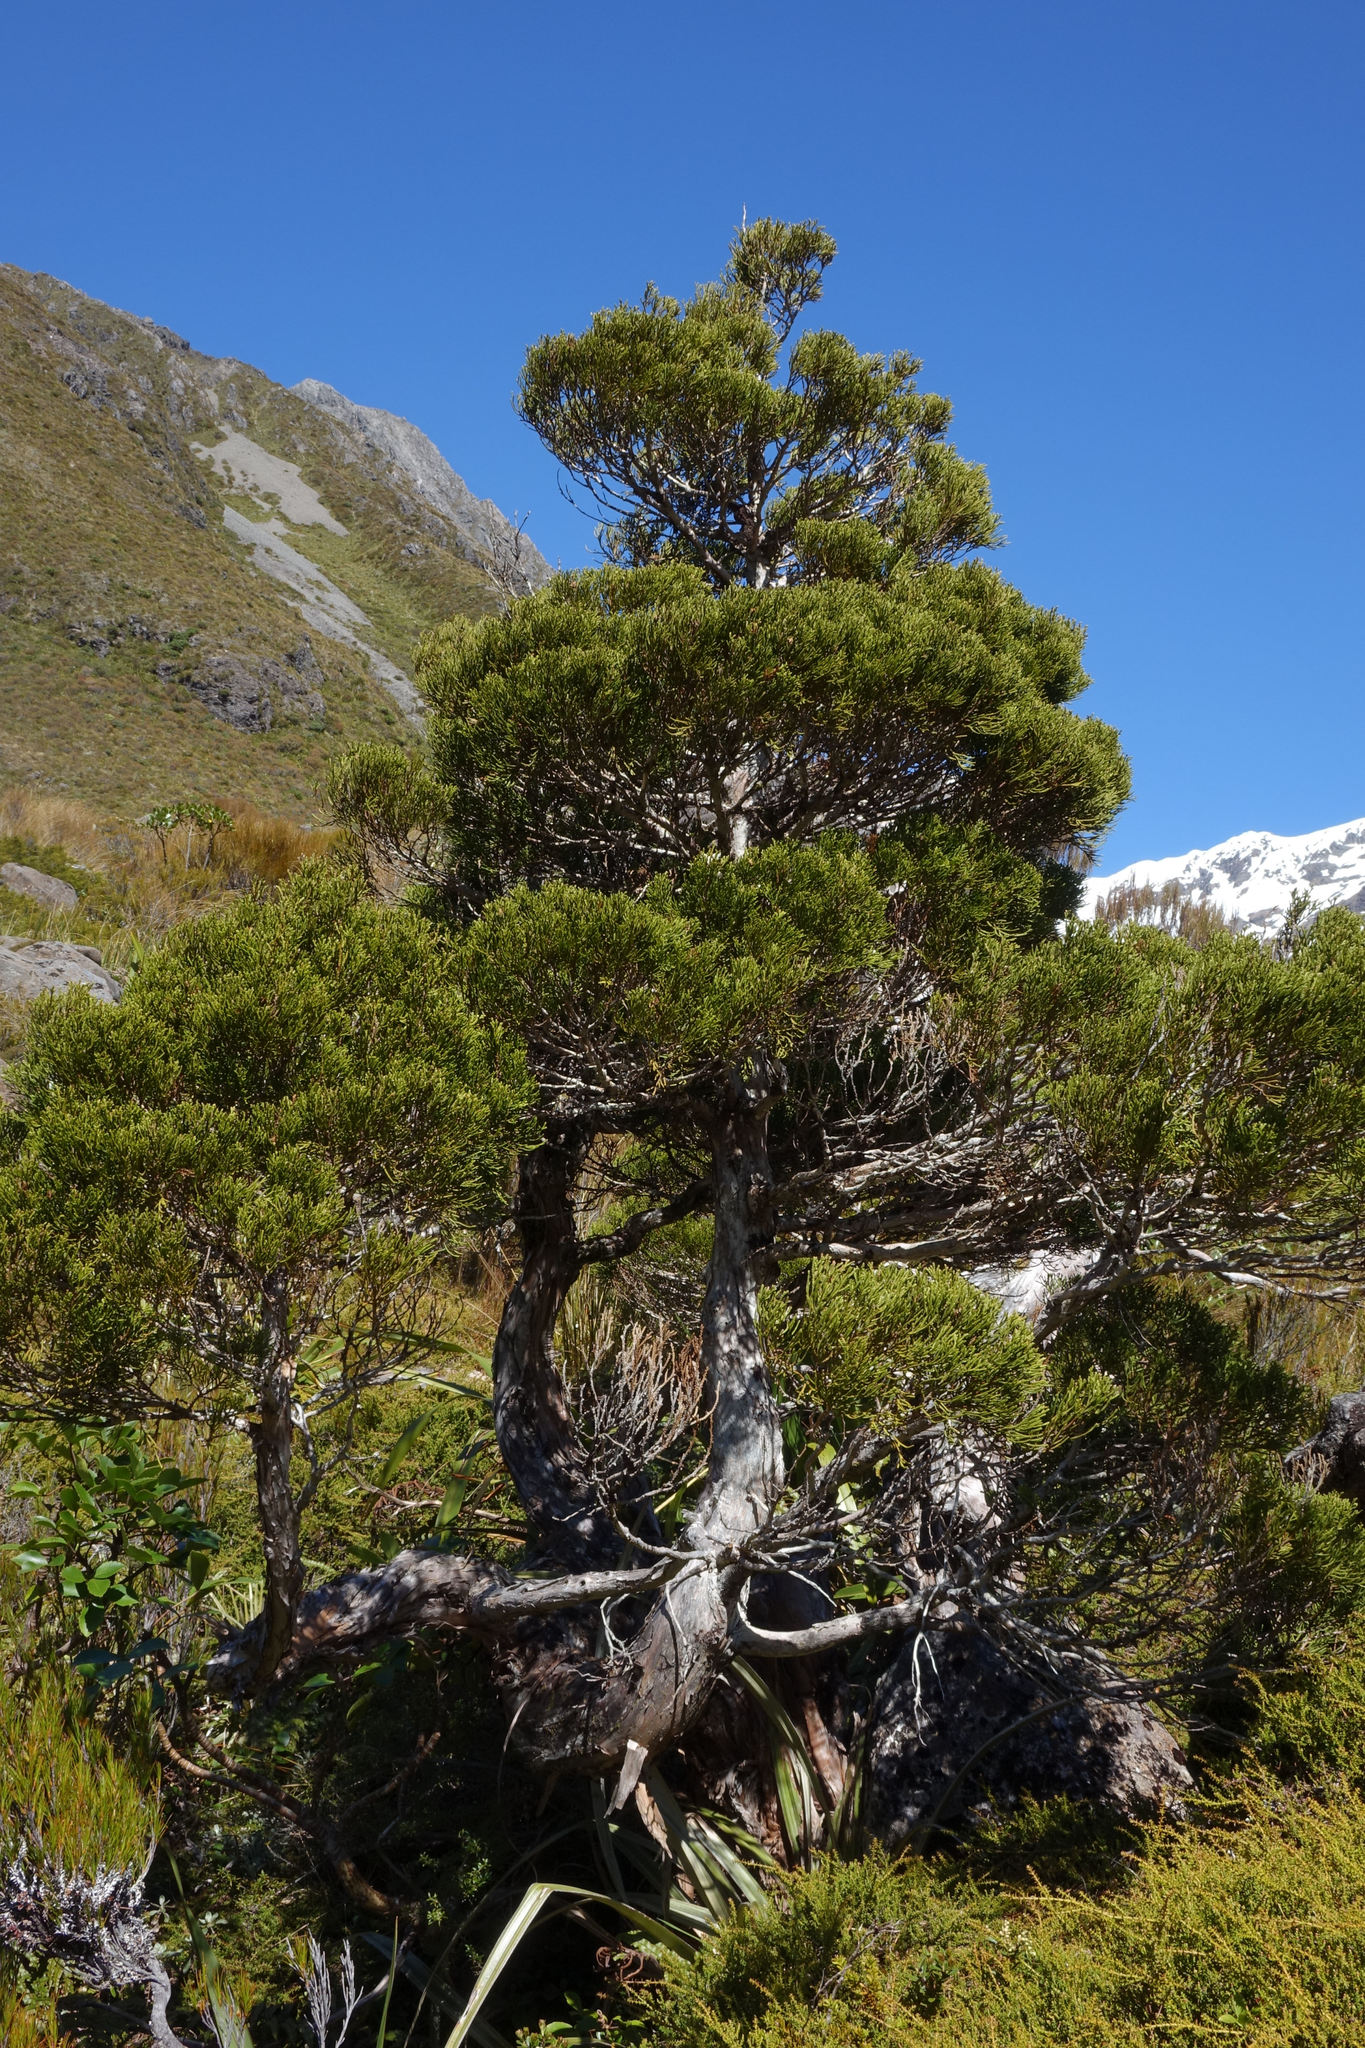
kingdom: Plantae
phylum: Tracheophyta
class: Pinopsida
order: Pinales
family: Cupressaceae
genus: Libocedrus
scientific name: Libocedrus bidwillii
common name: Cedar
